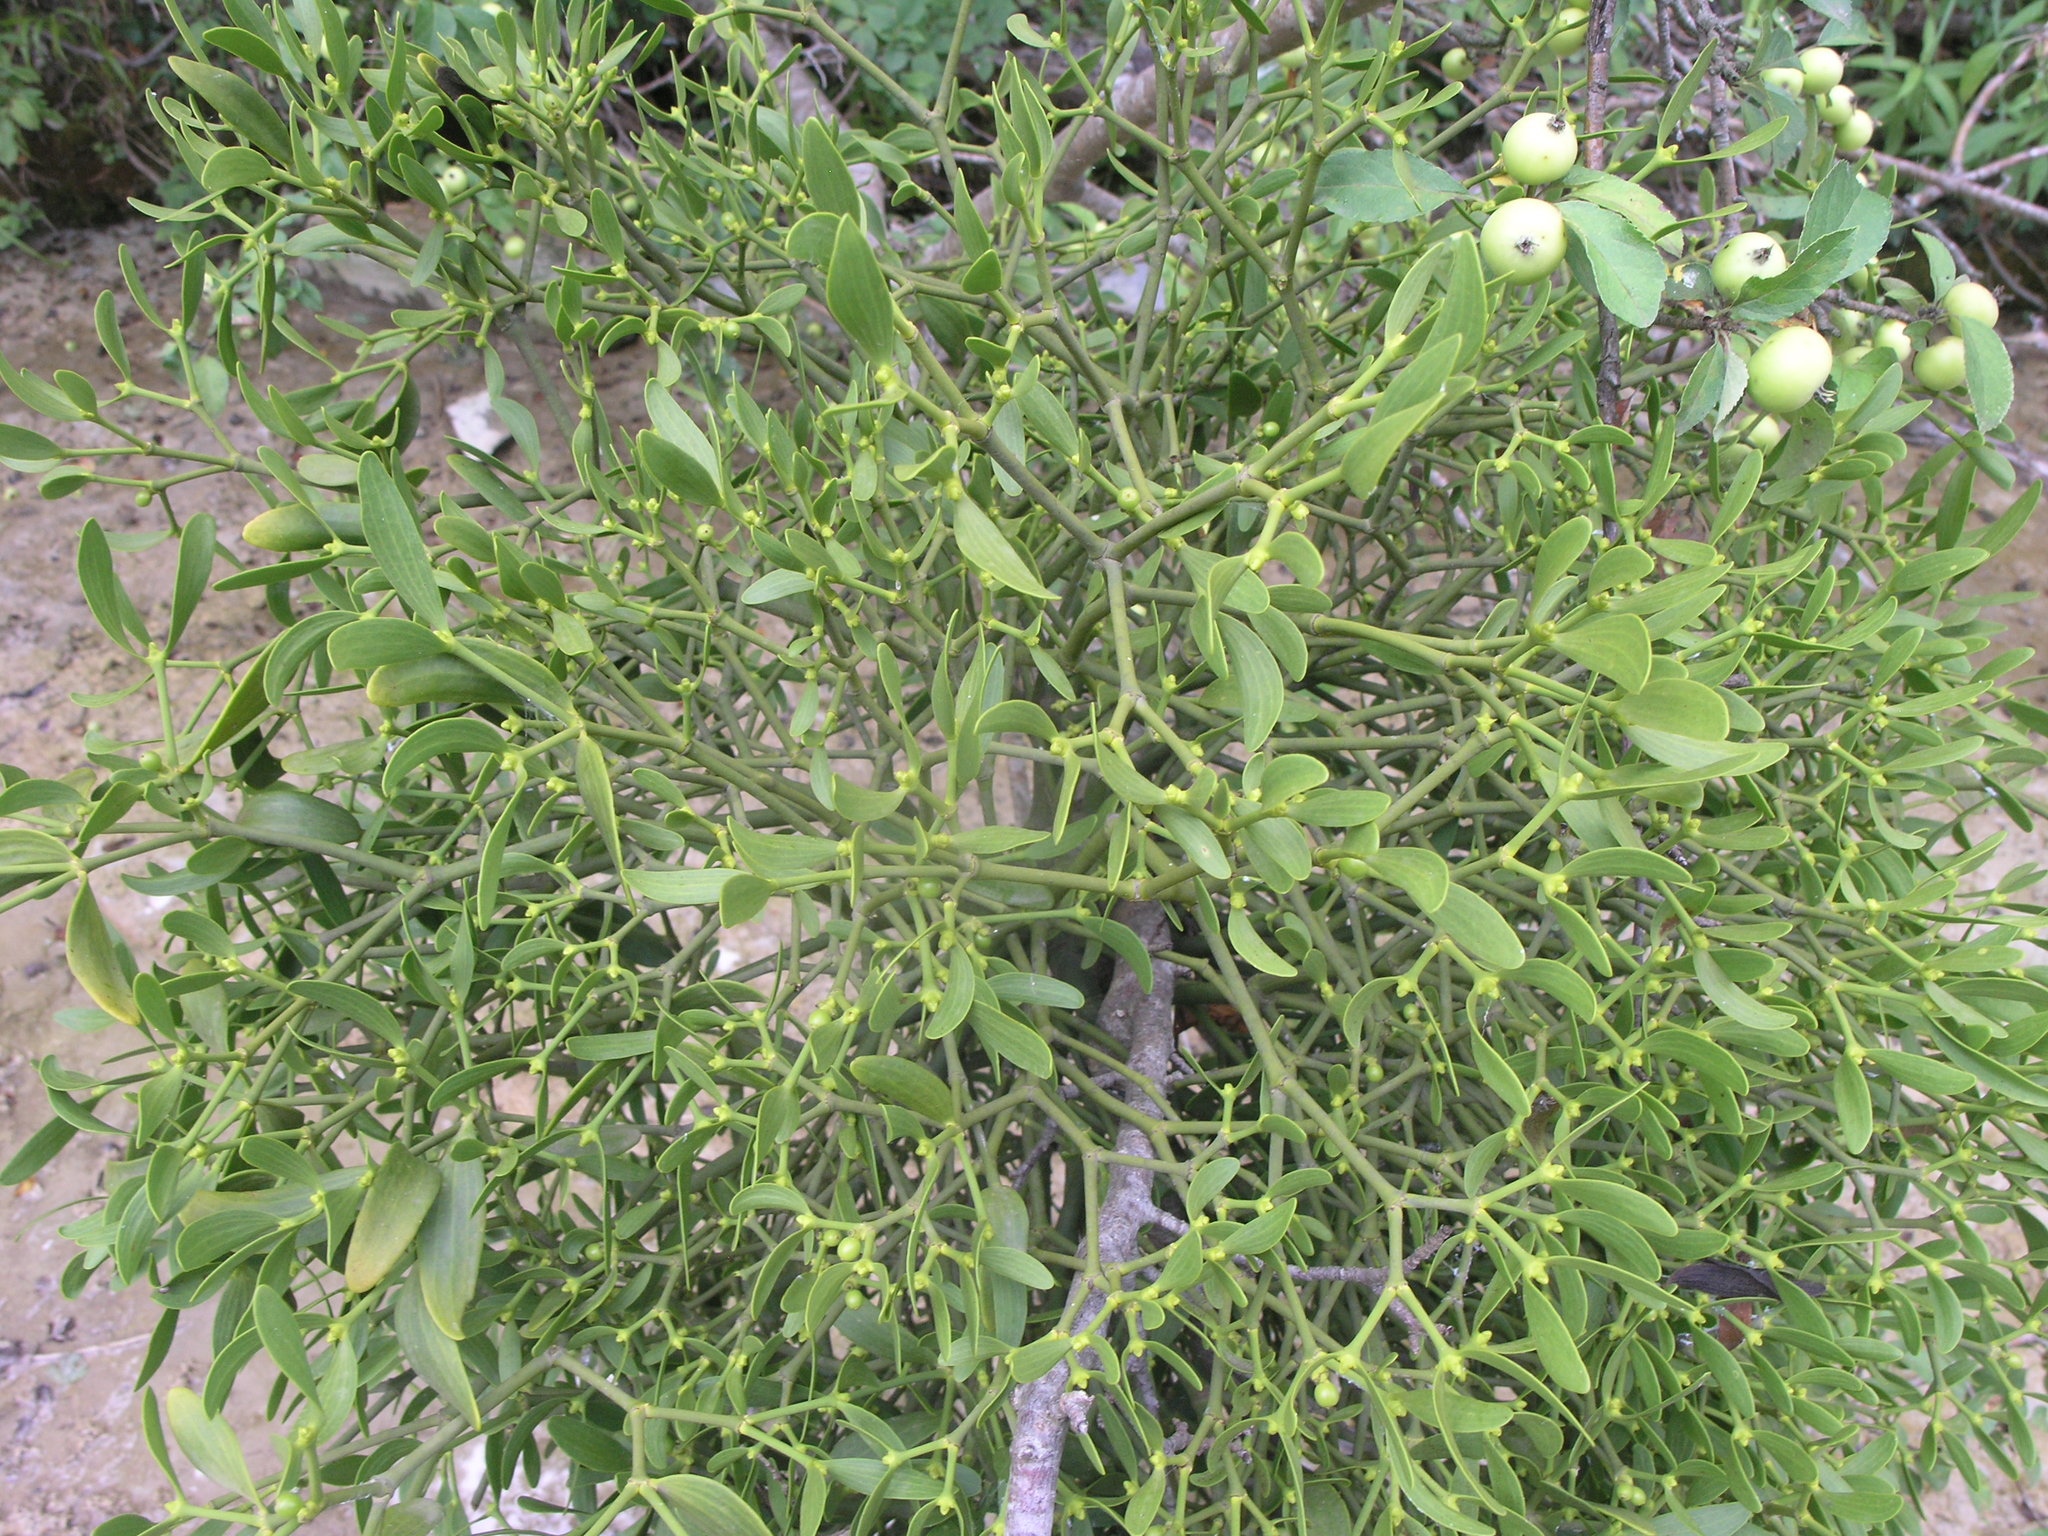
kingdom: Plantae
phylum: Tracheophyta
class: Magnoliopsida
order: Santalales
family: Viscaceae
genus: Viscum
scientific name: Viscum album
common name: Mistletoe
